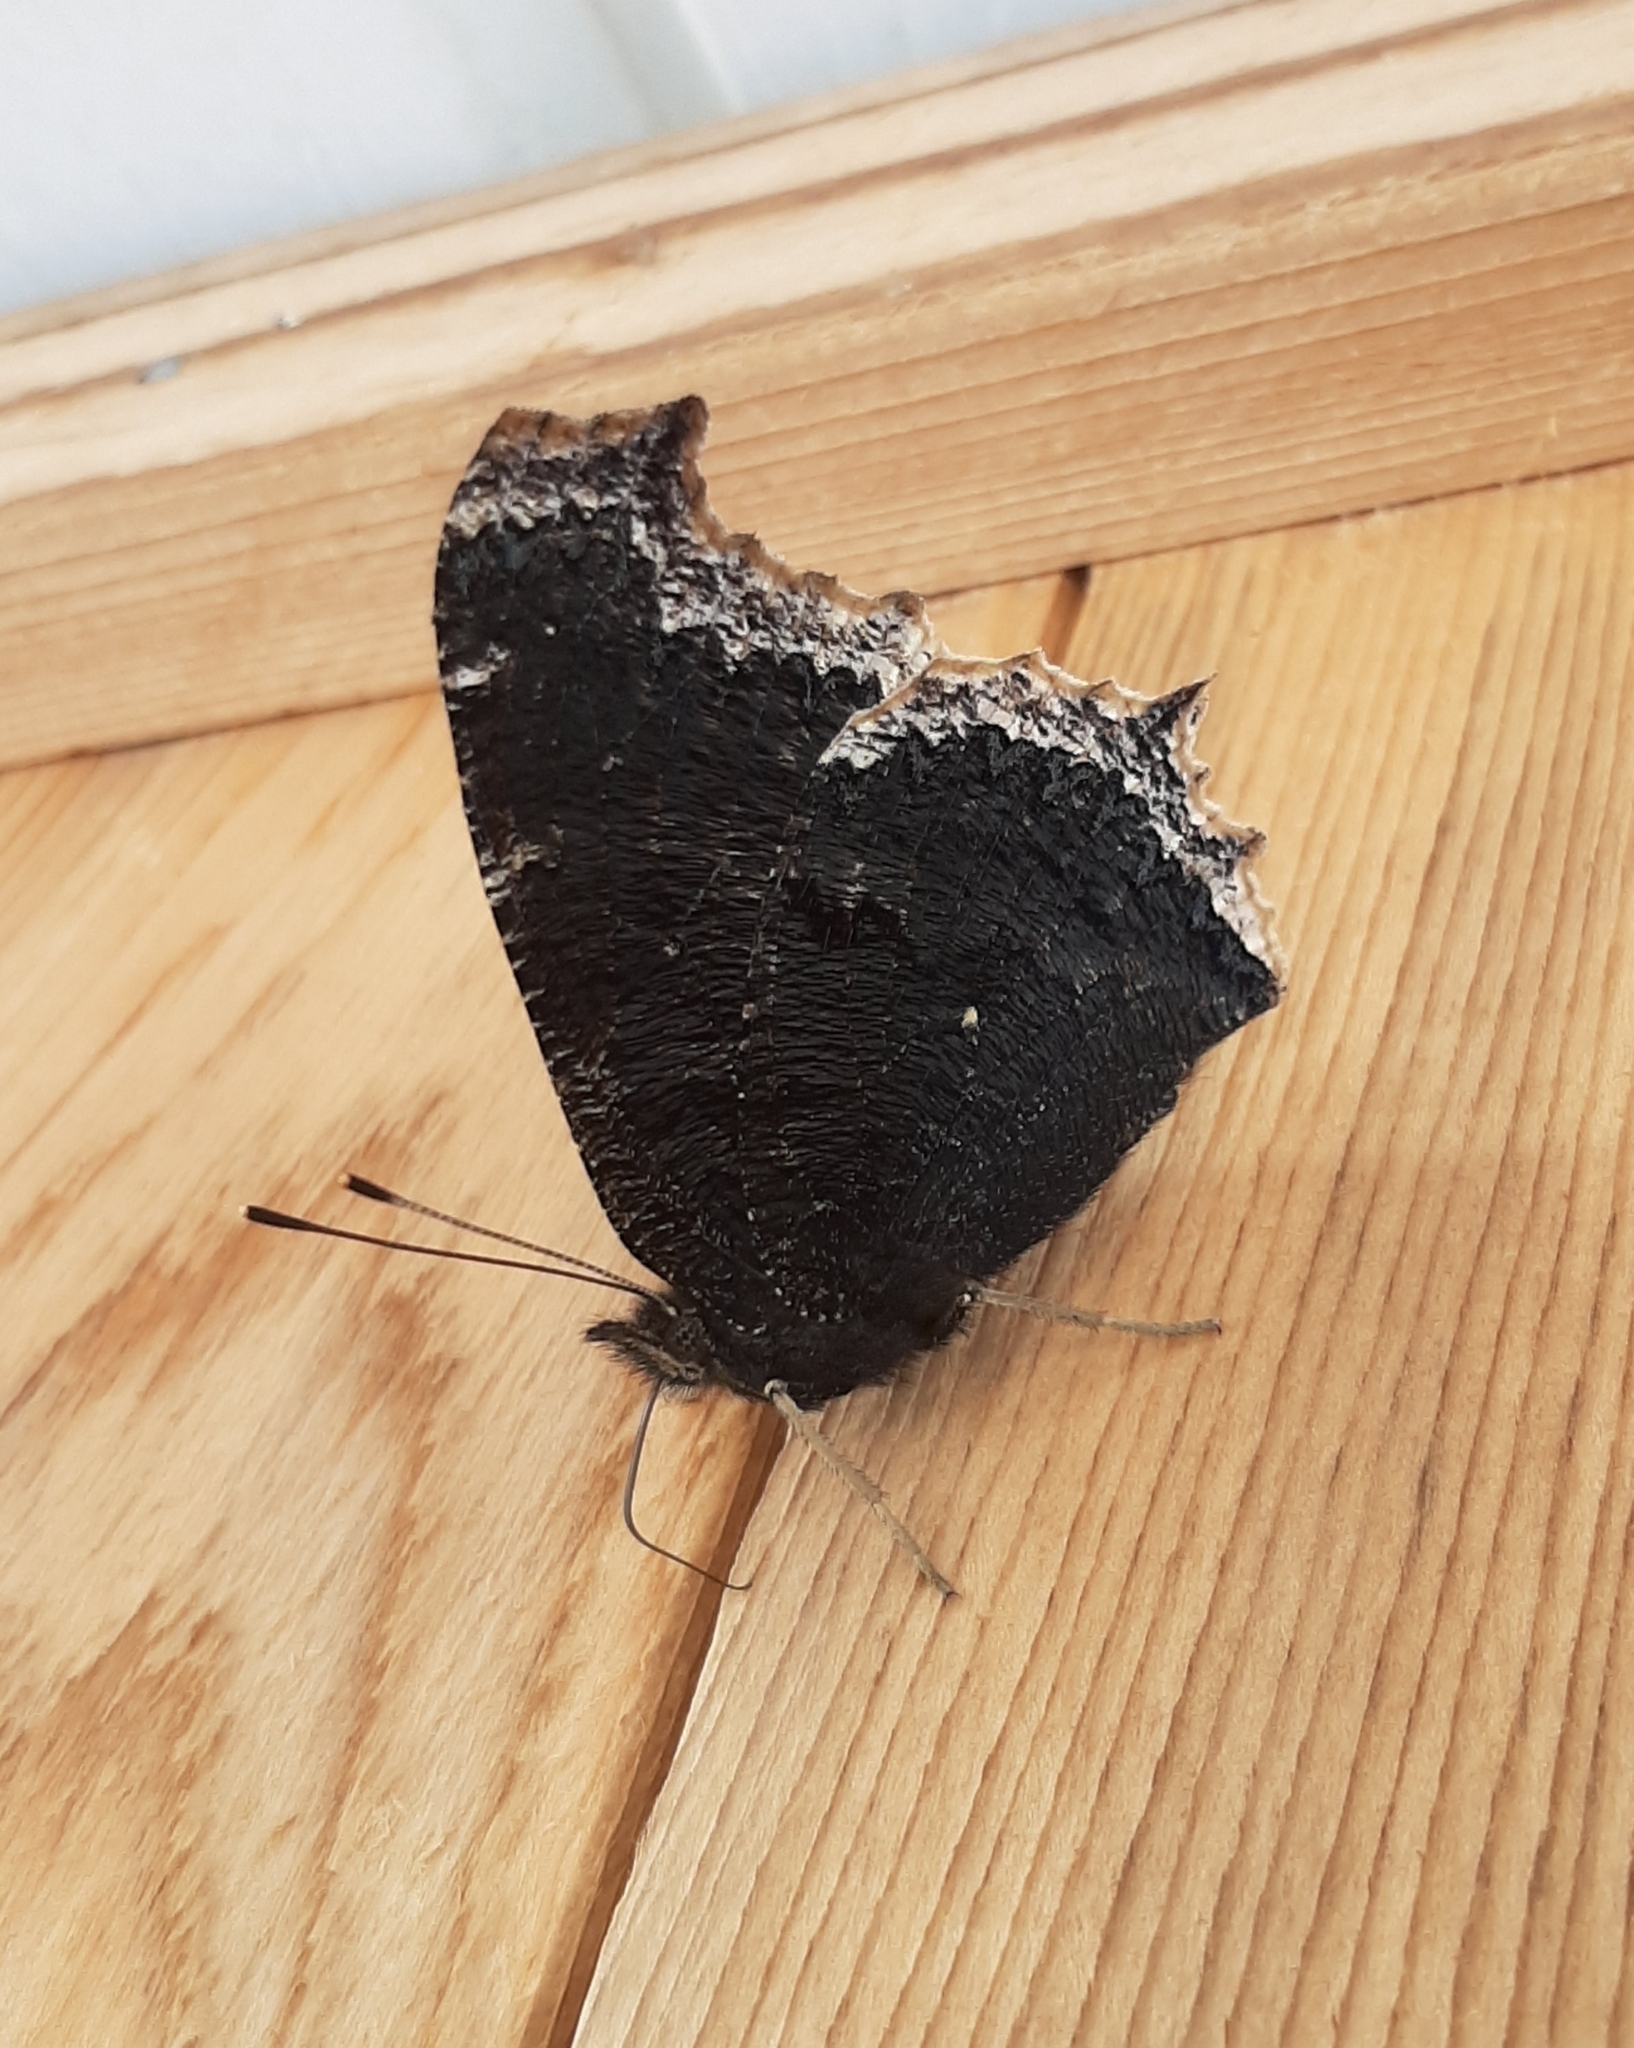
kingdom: Animalia
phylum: Arthropoda
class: Insecta
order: Lepidoptera
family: Nymphalidae
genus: Nymphalis
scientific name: Nymphalis antiopa
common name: Camberwell beauty
